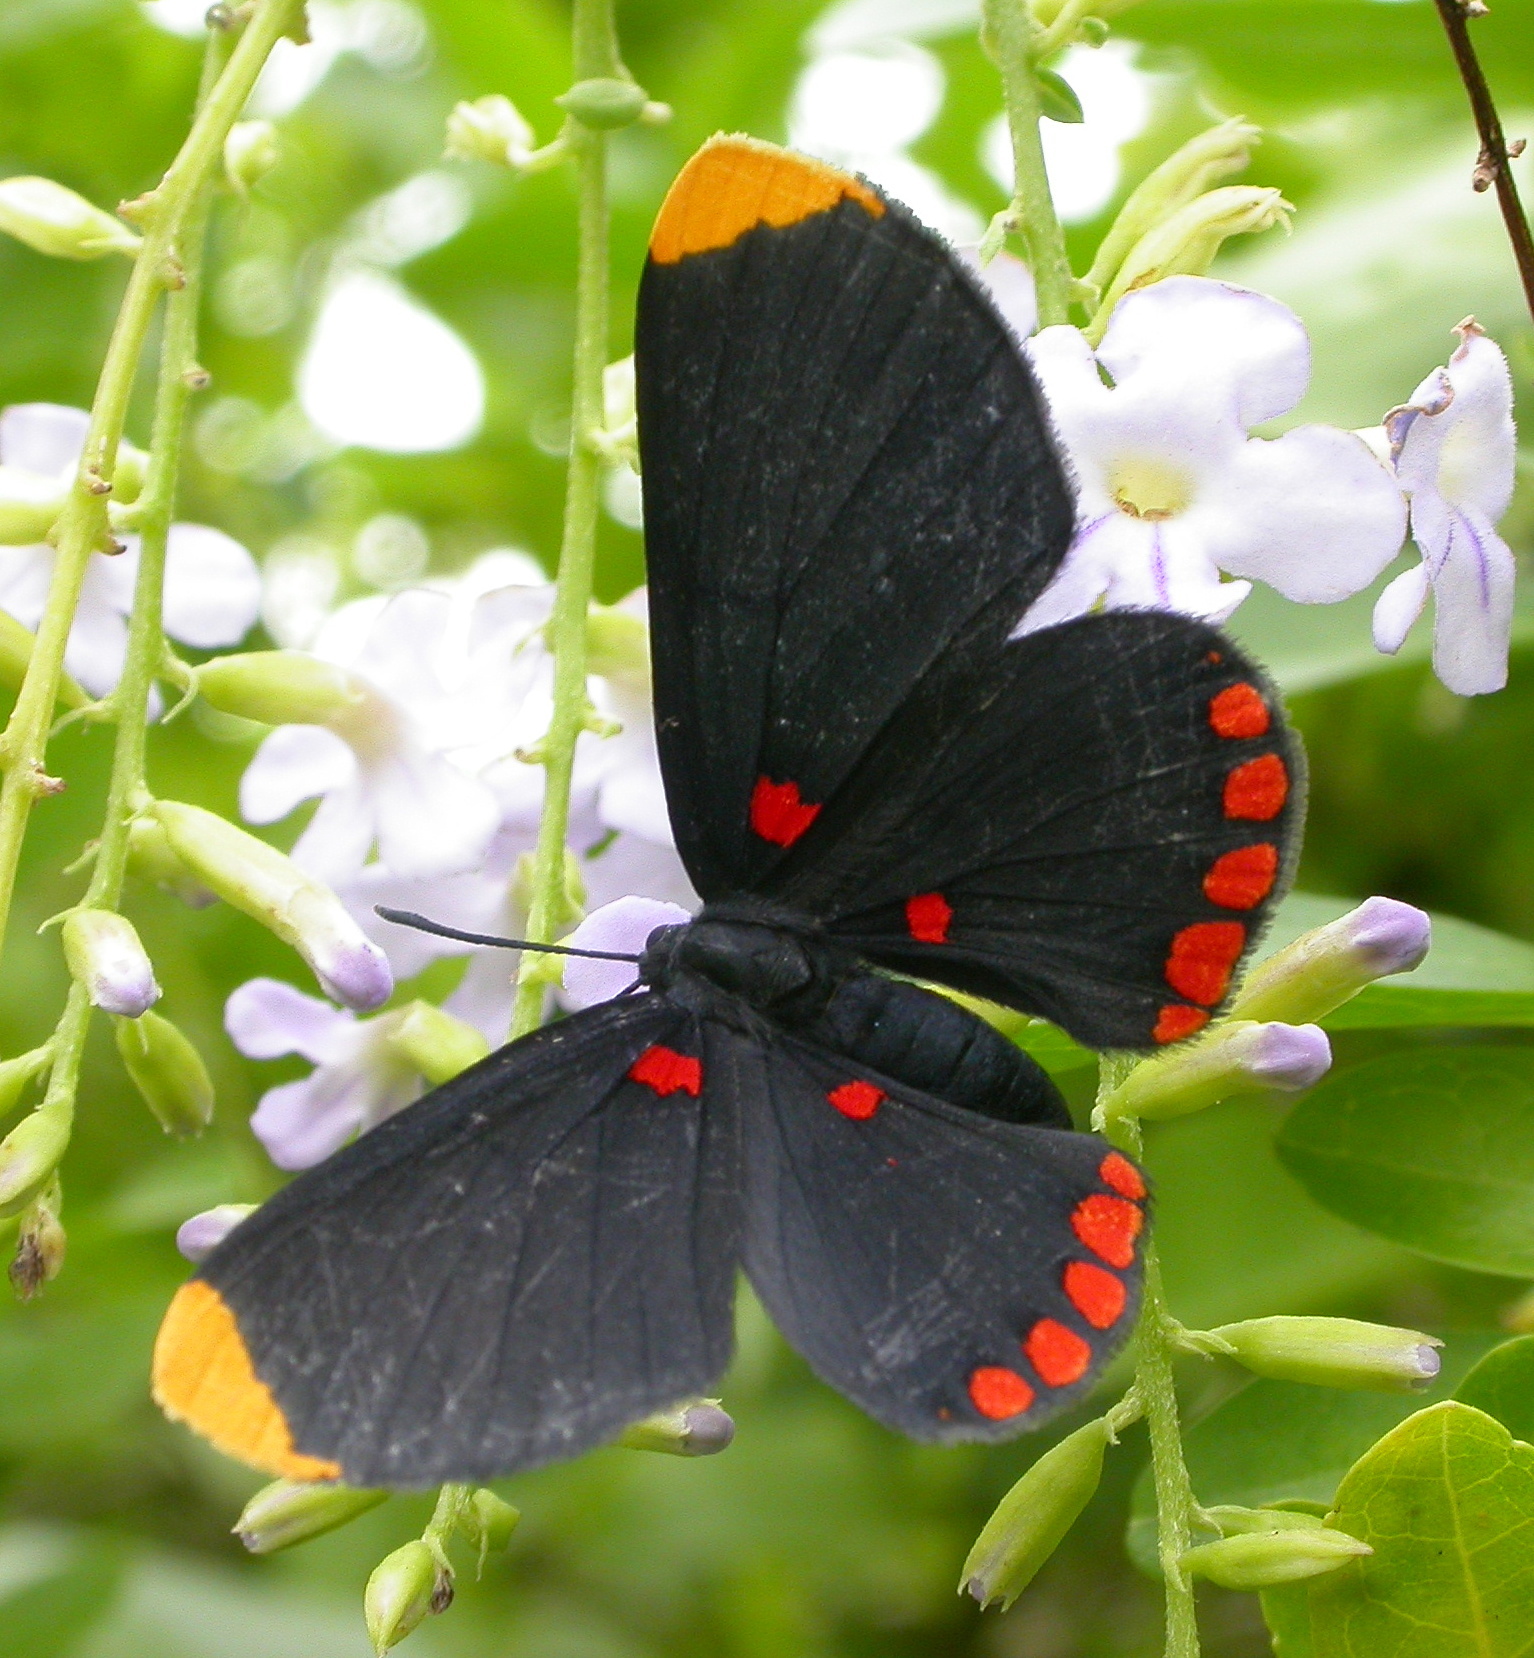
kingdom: Animalia
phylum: Arthropoda
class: Insecta
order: Lepidoptera
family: Lycaenidae
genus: Melanis
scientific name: Melanis pixe
